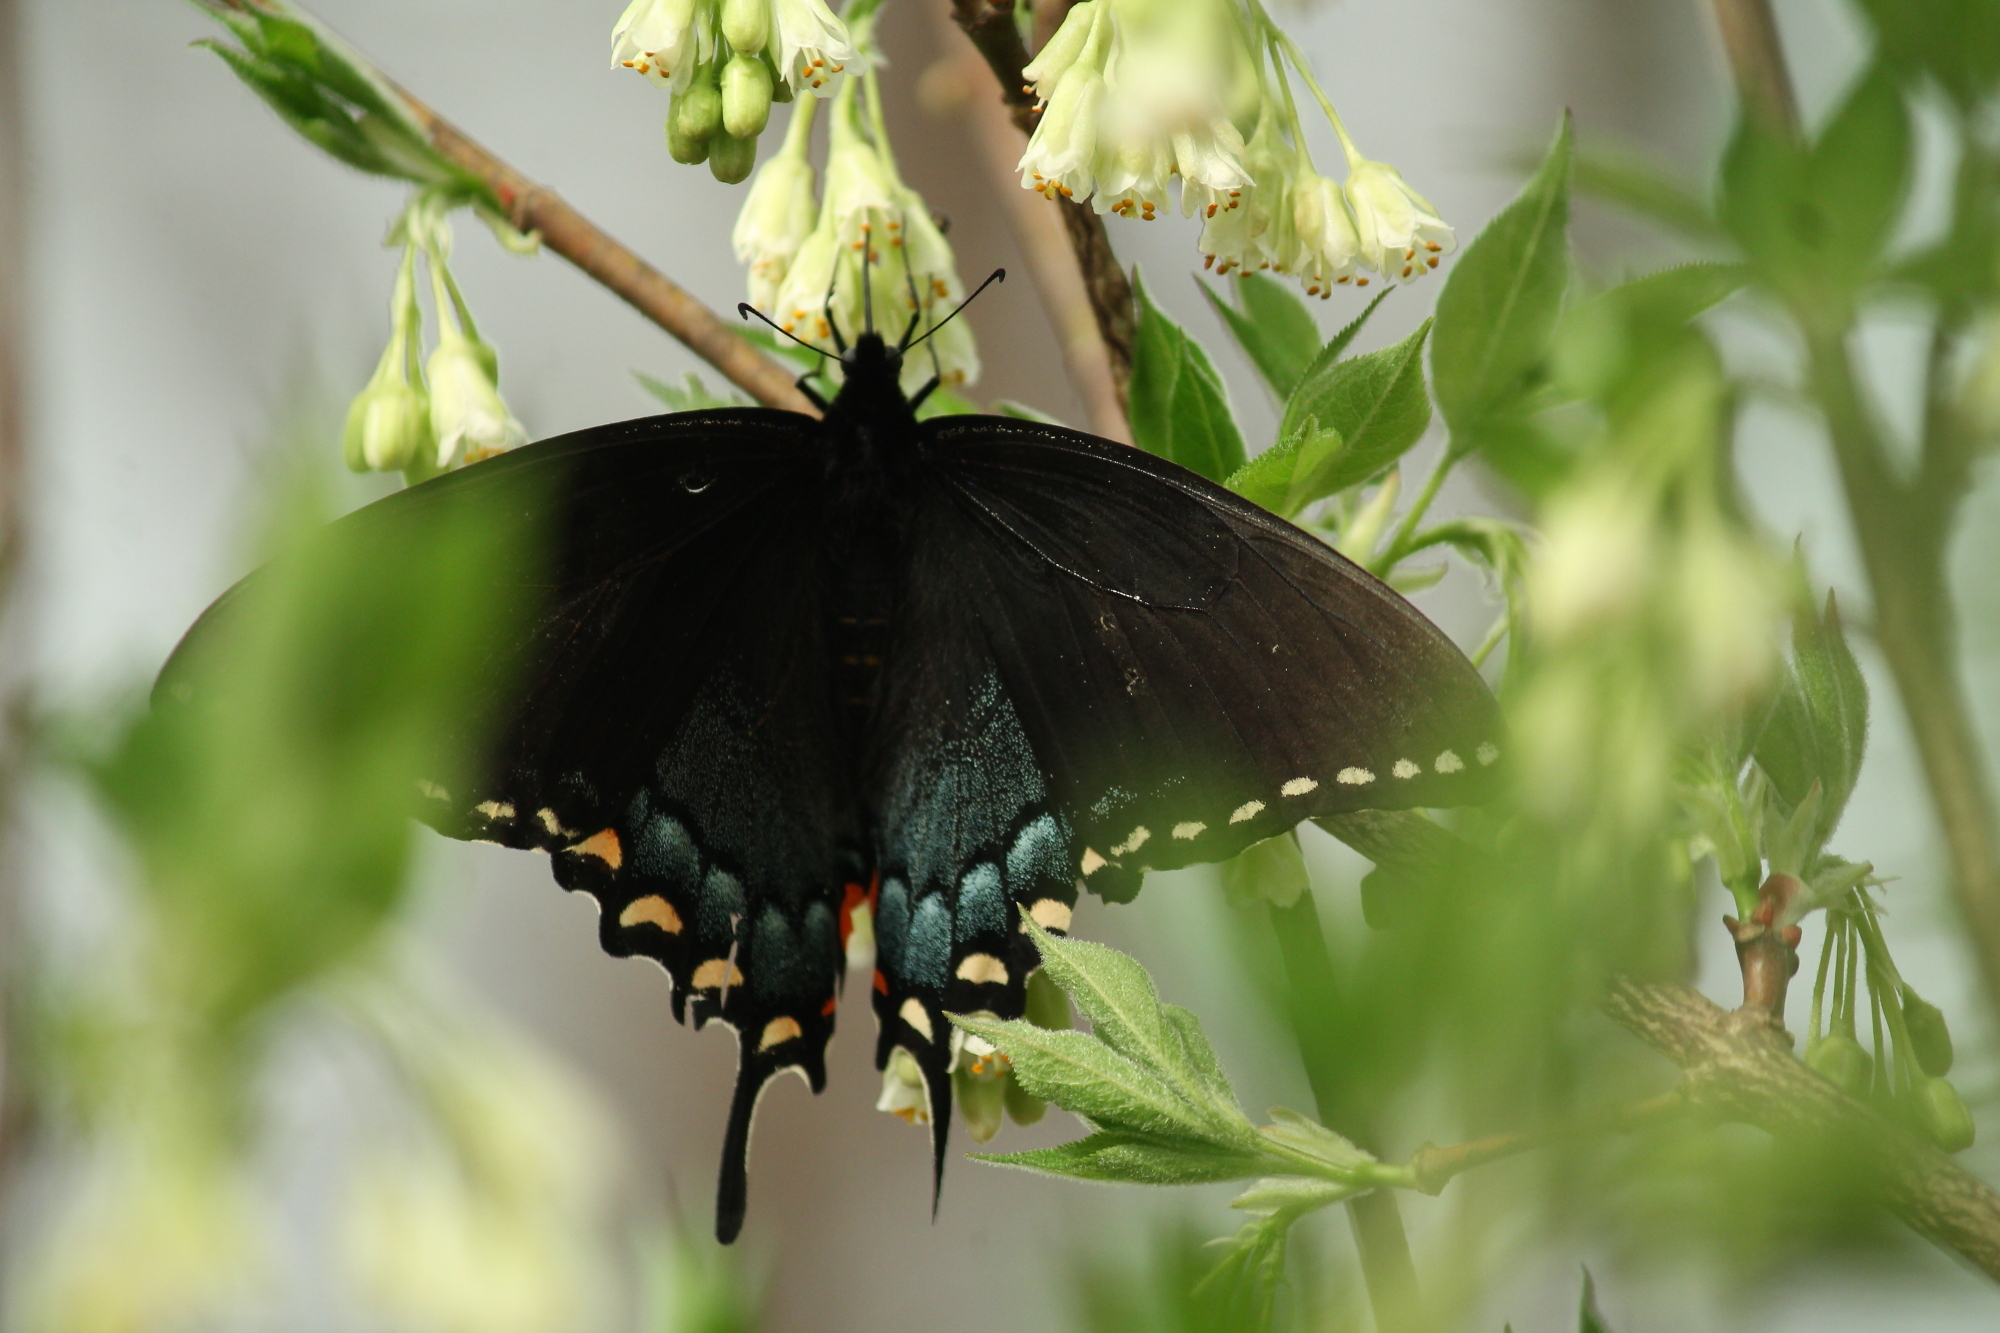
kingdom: Animalia
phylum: Arthropoda
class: Insecta
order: Lepidoptera
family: Papilionidae
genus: Papilio
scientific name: Papilio glaucus
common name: Tiger swallowtail
